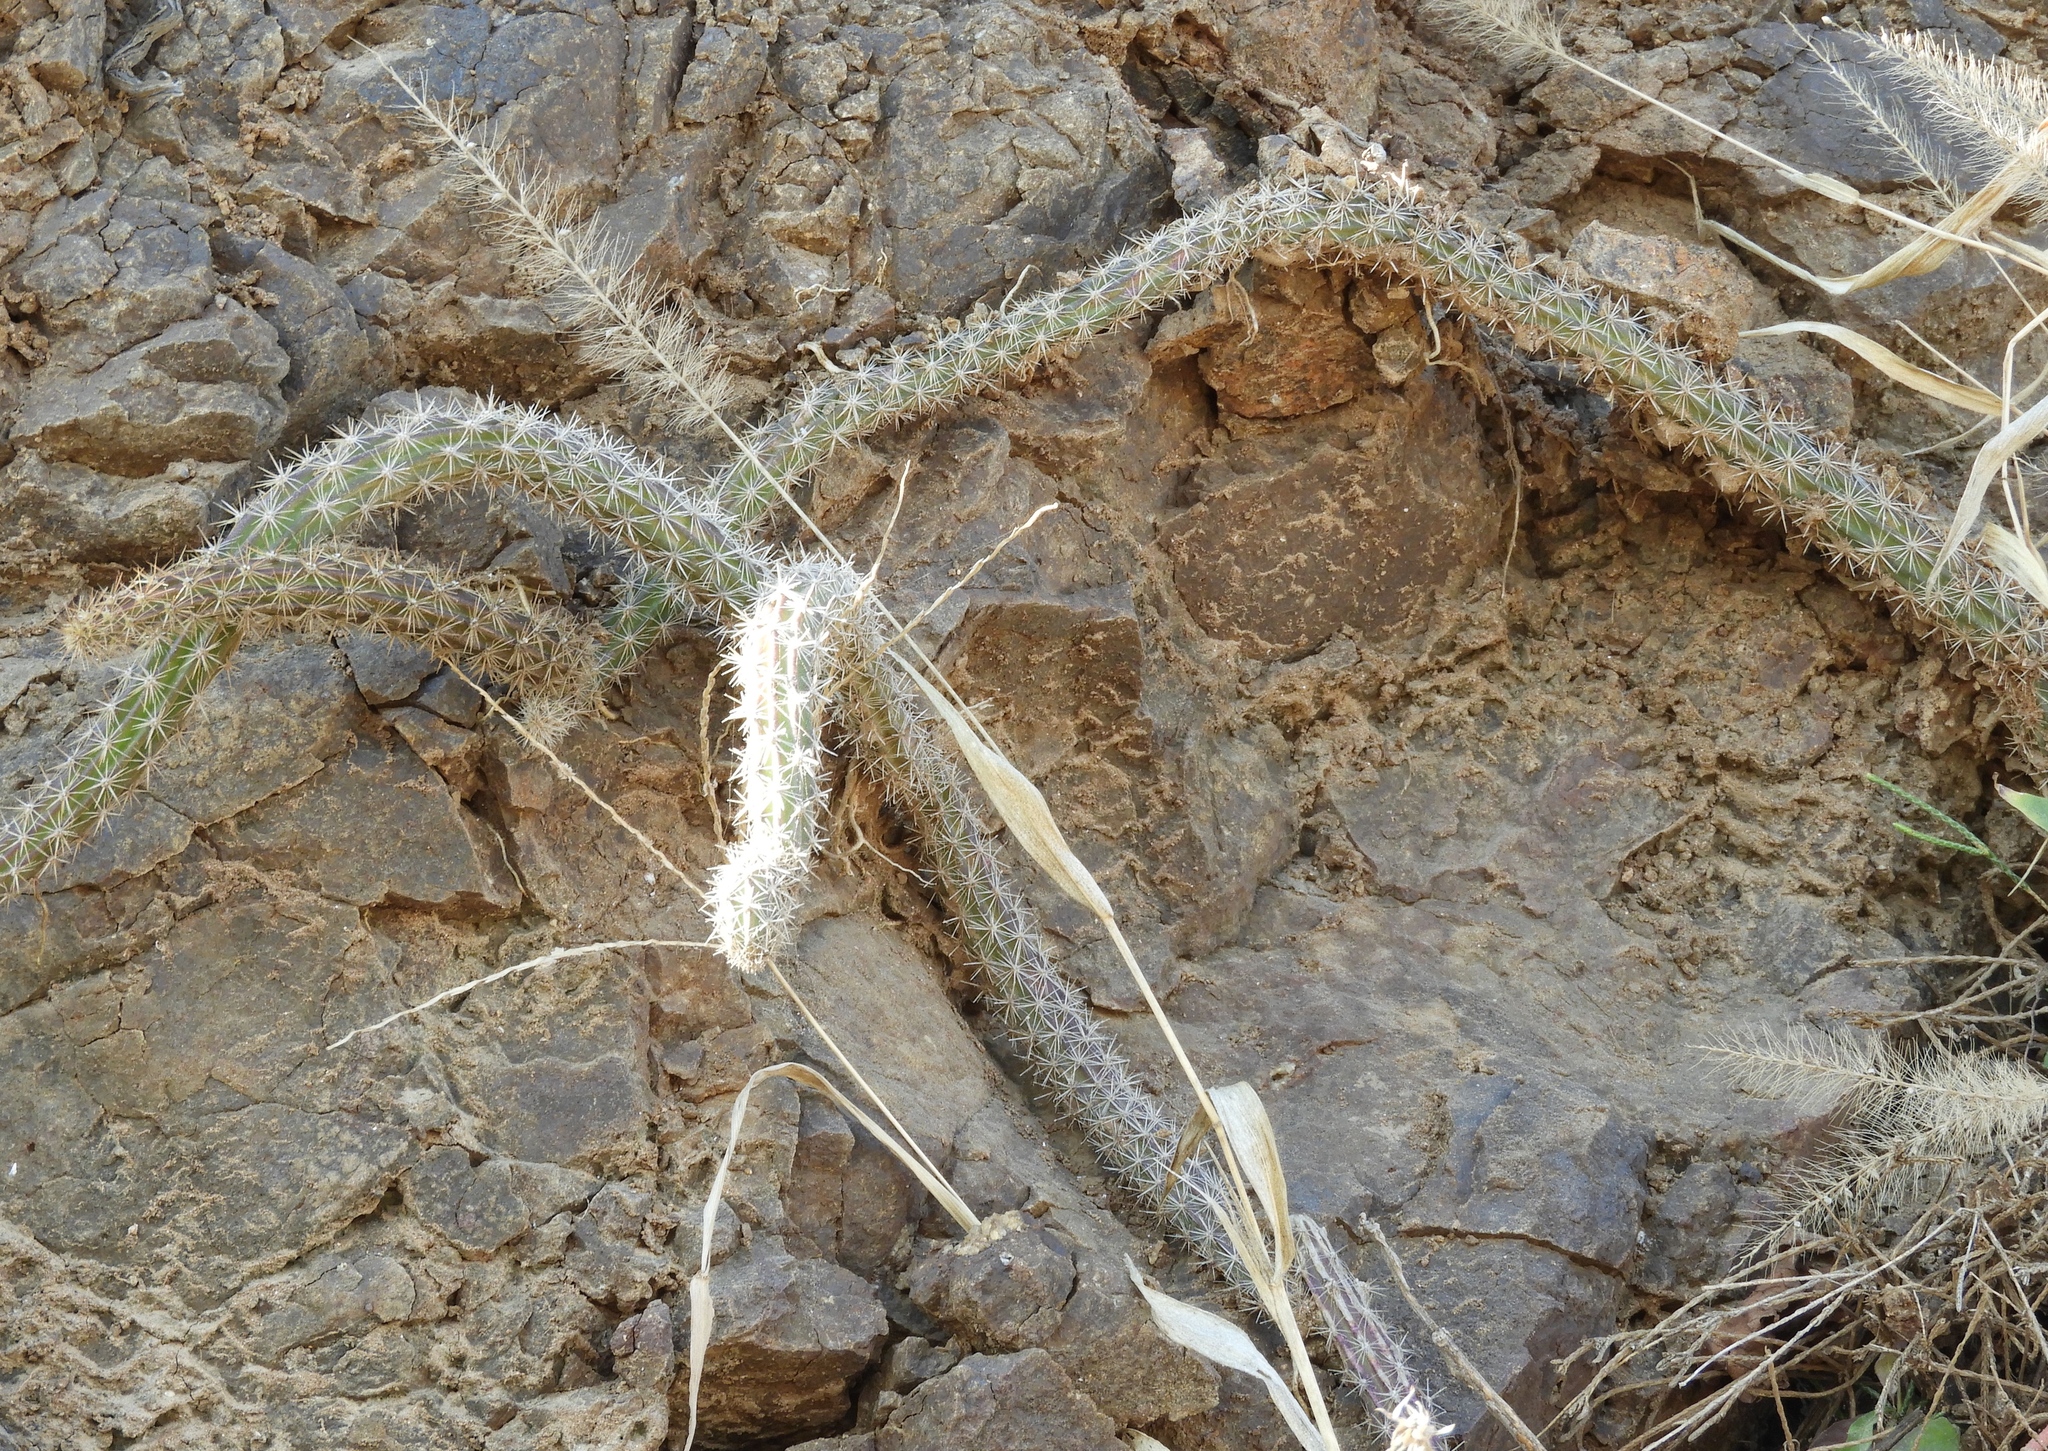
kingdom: Plantae
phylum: Tracheophyta
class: Magnoliopsida
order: Caryophyllales
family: Cactaceae
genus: Selenicereus
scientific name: Selenicereus vagans
